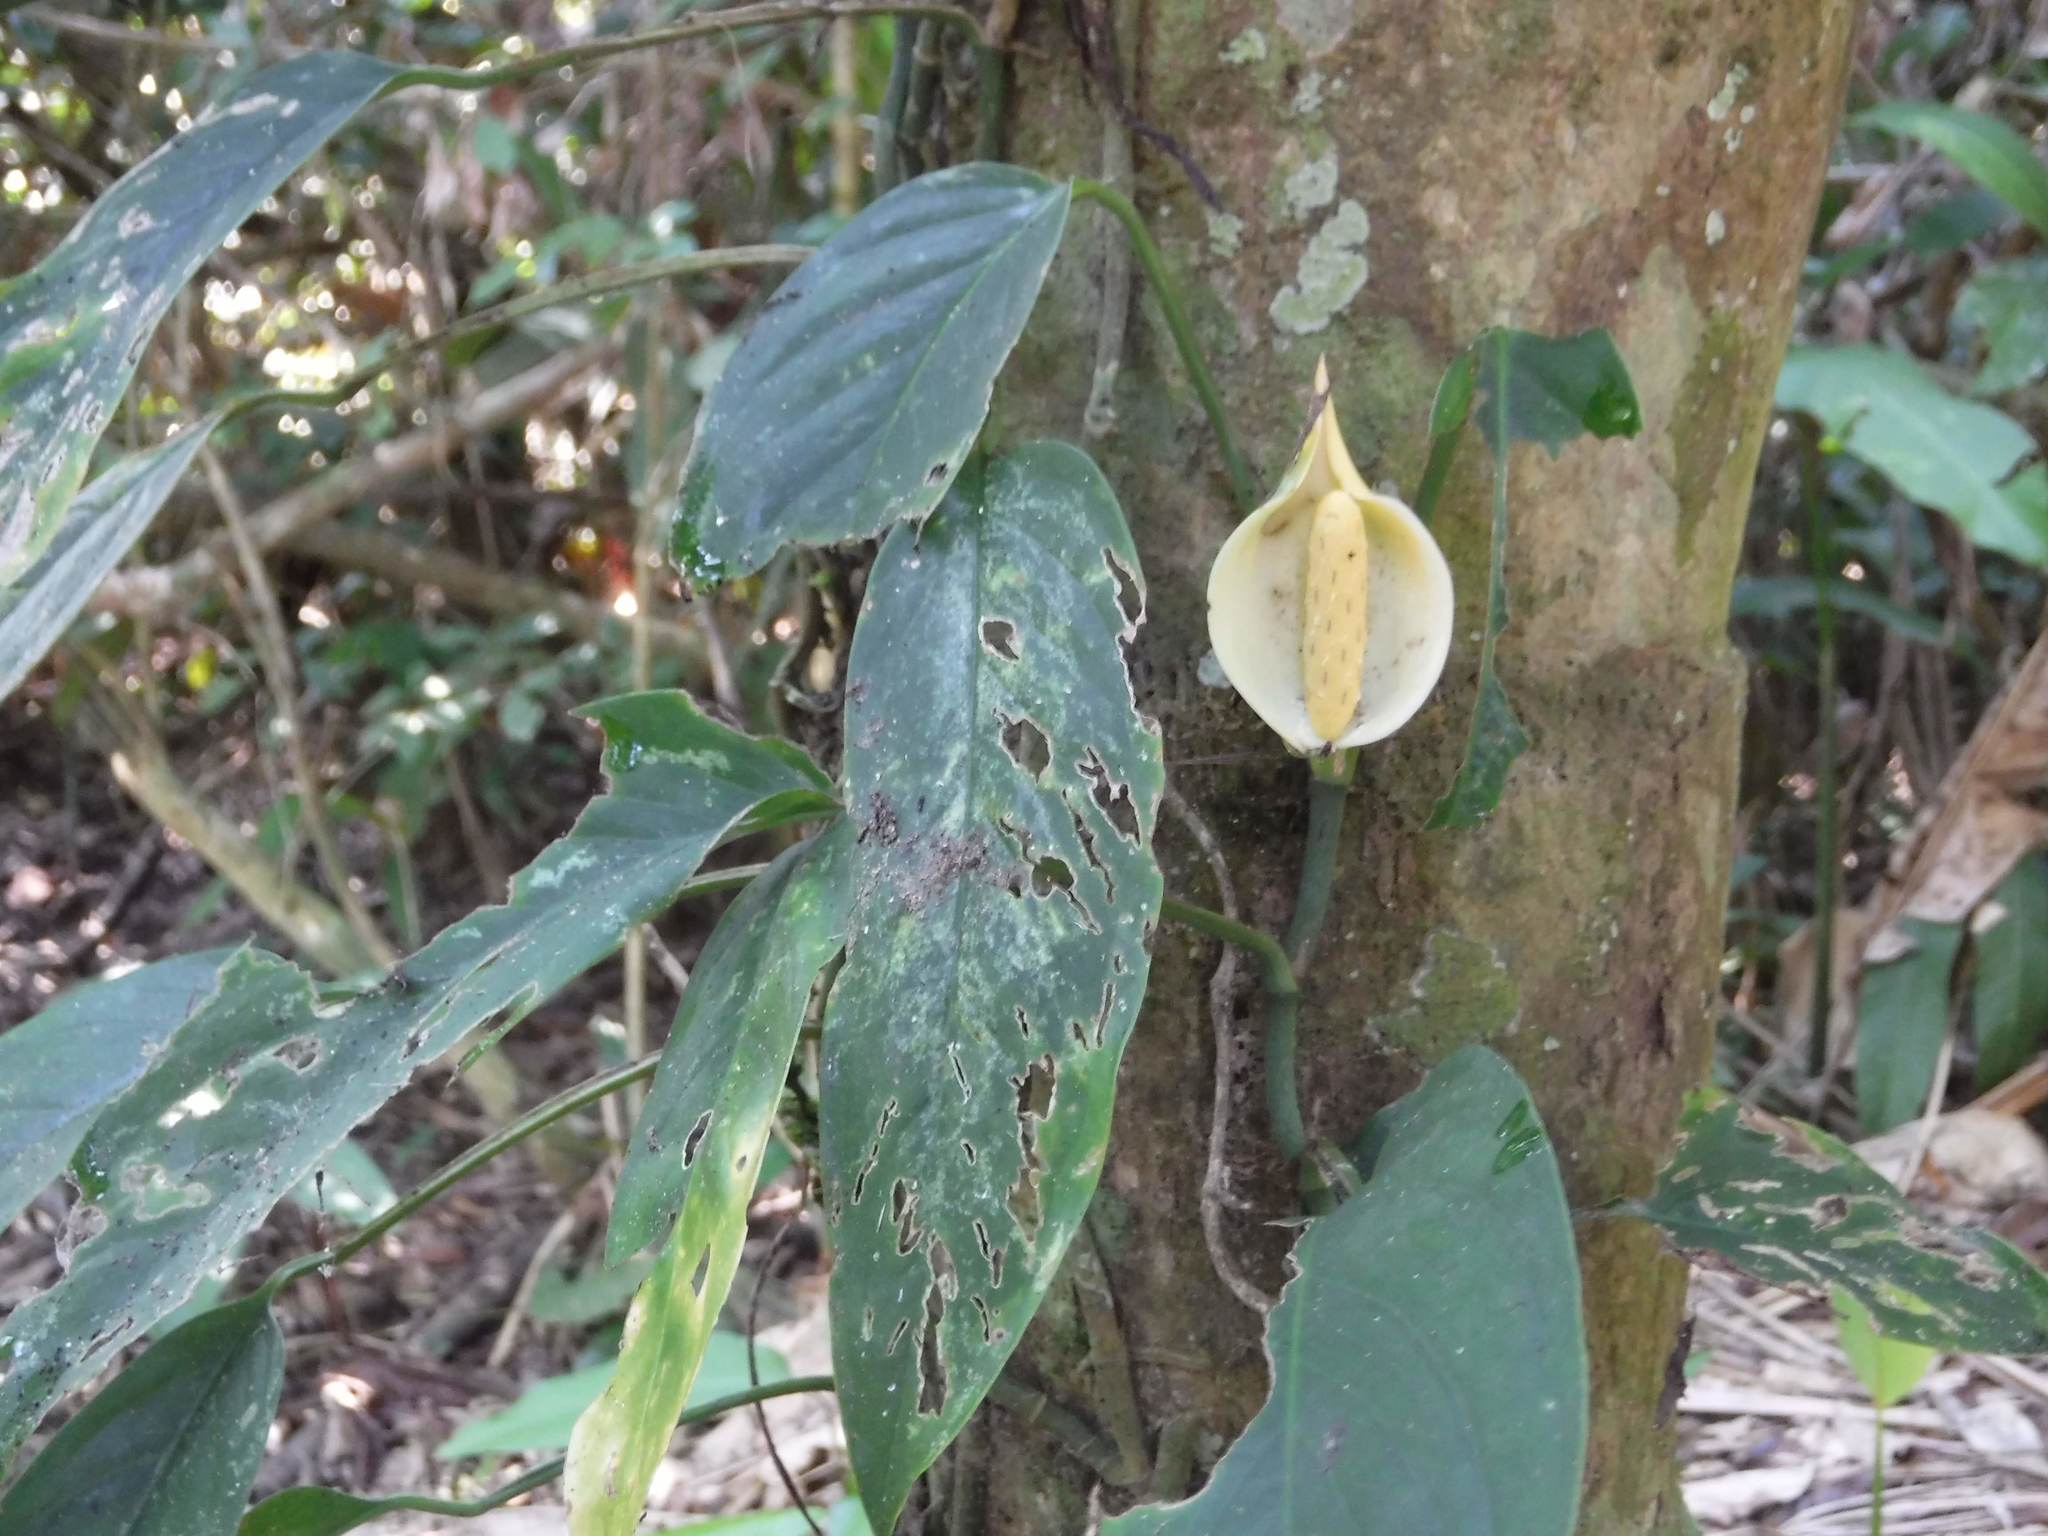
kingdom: Plantae
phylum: Tracheophyta
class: Liliopsida
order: Alismatales
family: Araceae
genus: Monstera
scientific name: Monstera obliqua
